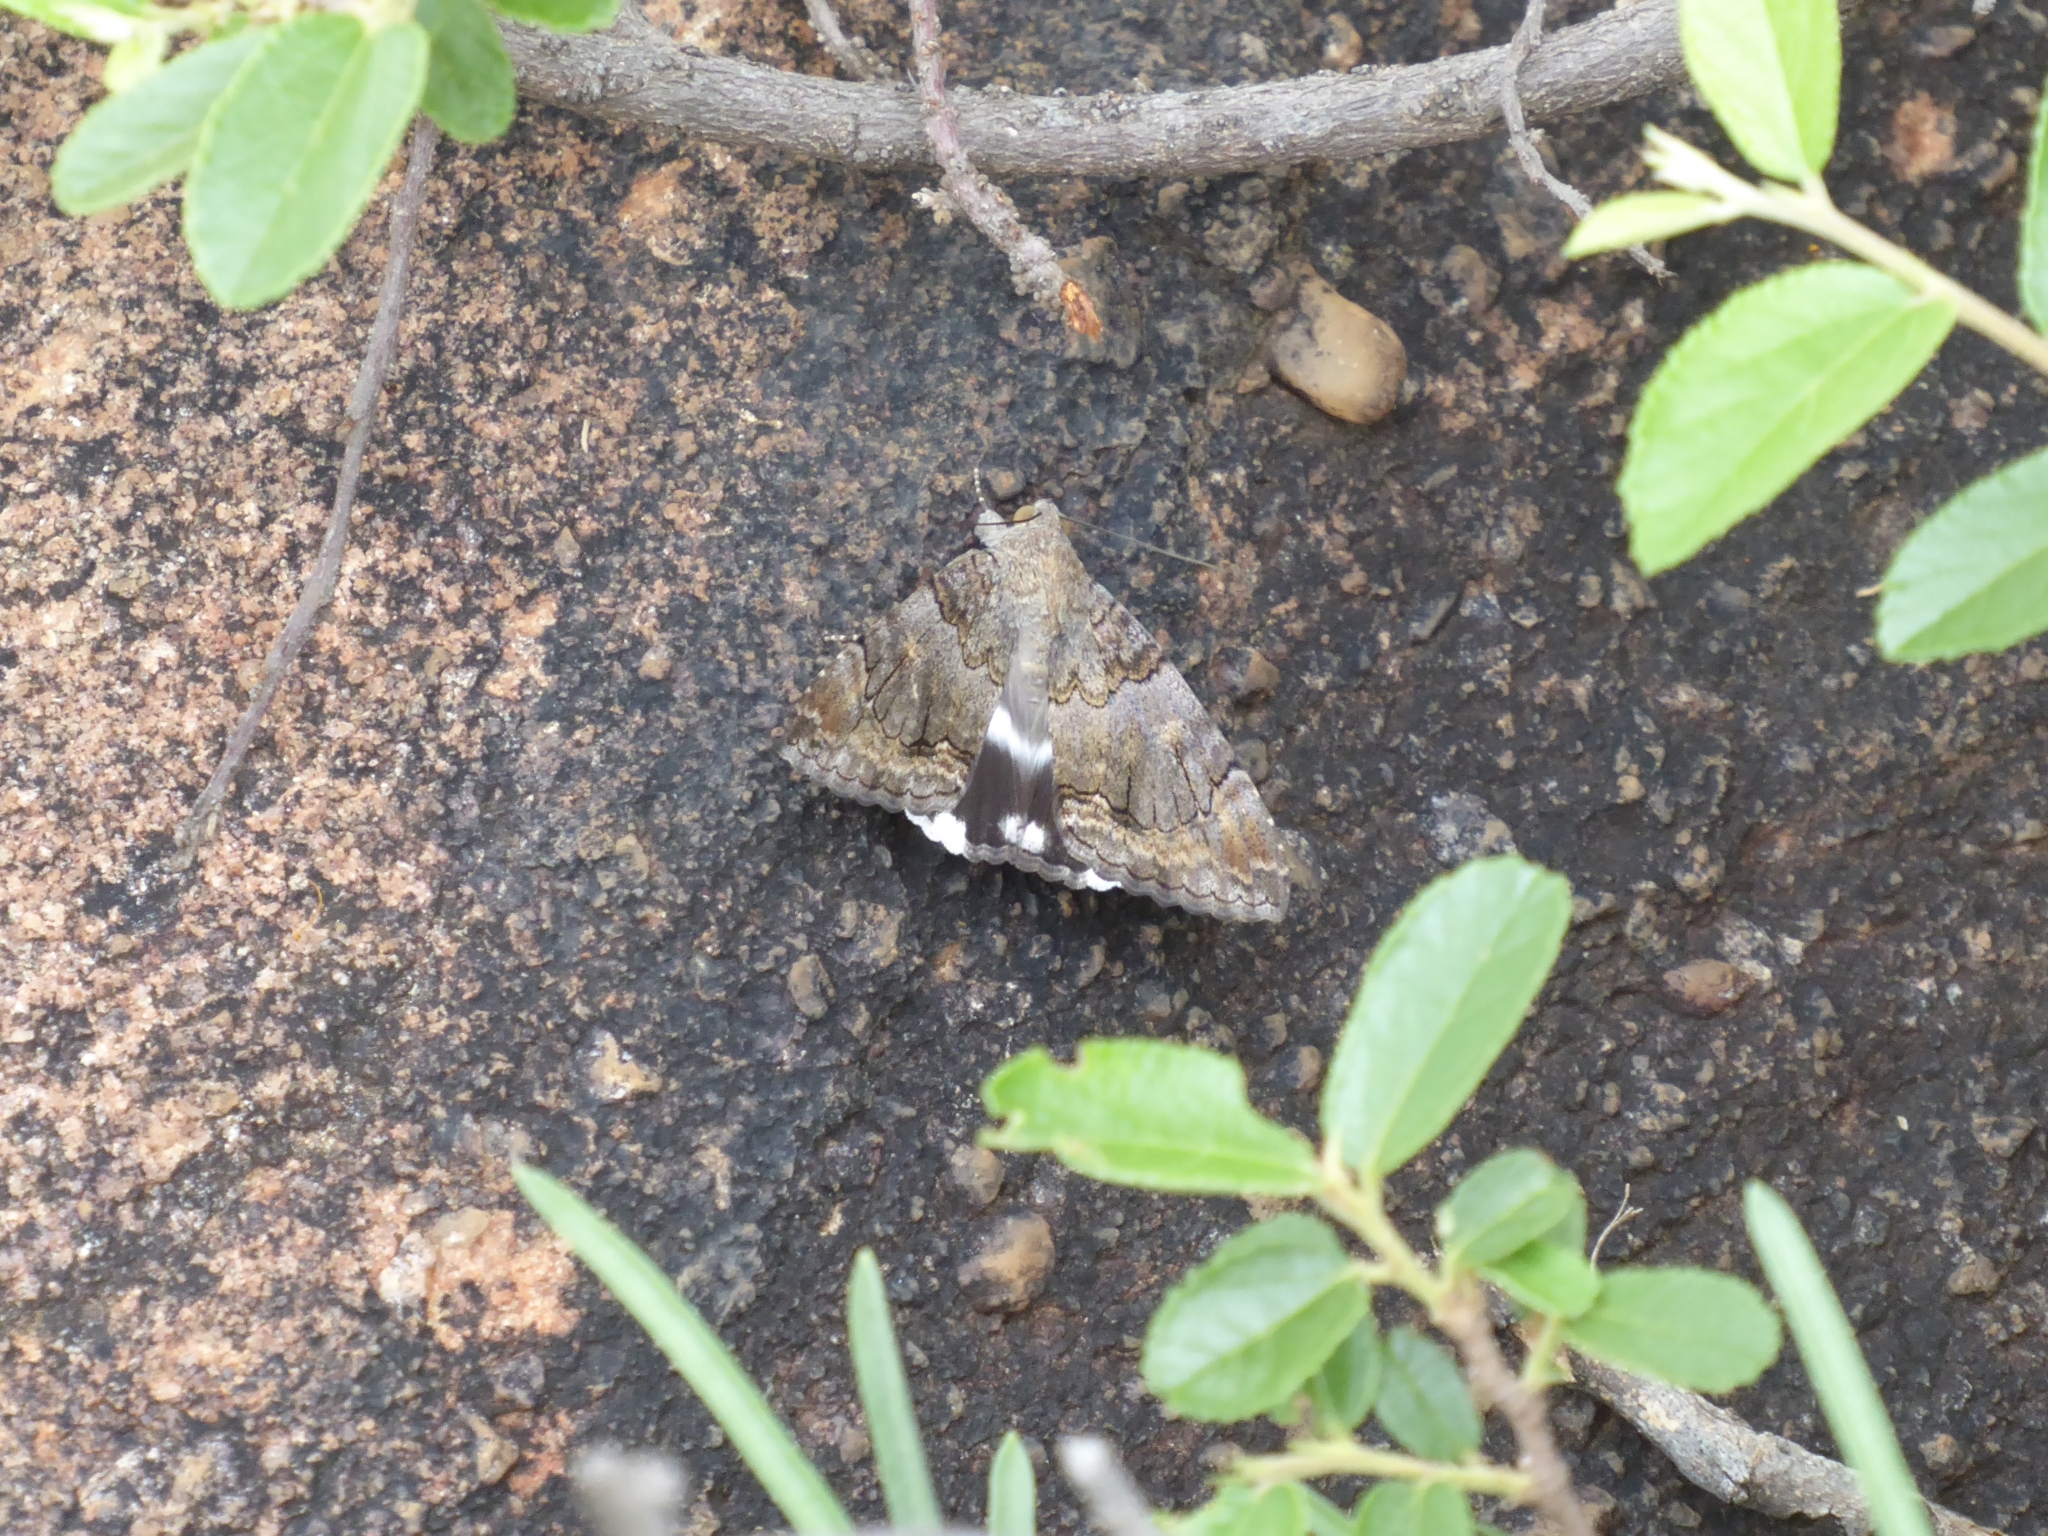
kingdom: Animalia
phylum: Arthropoda
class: Insecta
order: Lepidoptera
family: Erebidae
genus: Achaea
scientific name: Achaea catella
